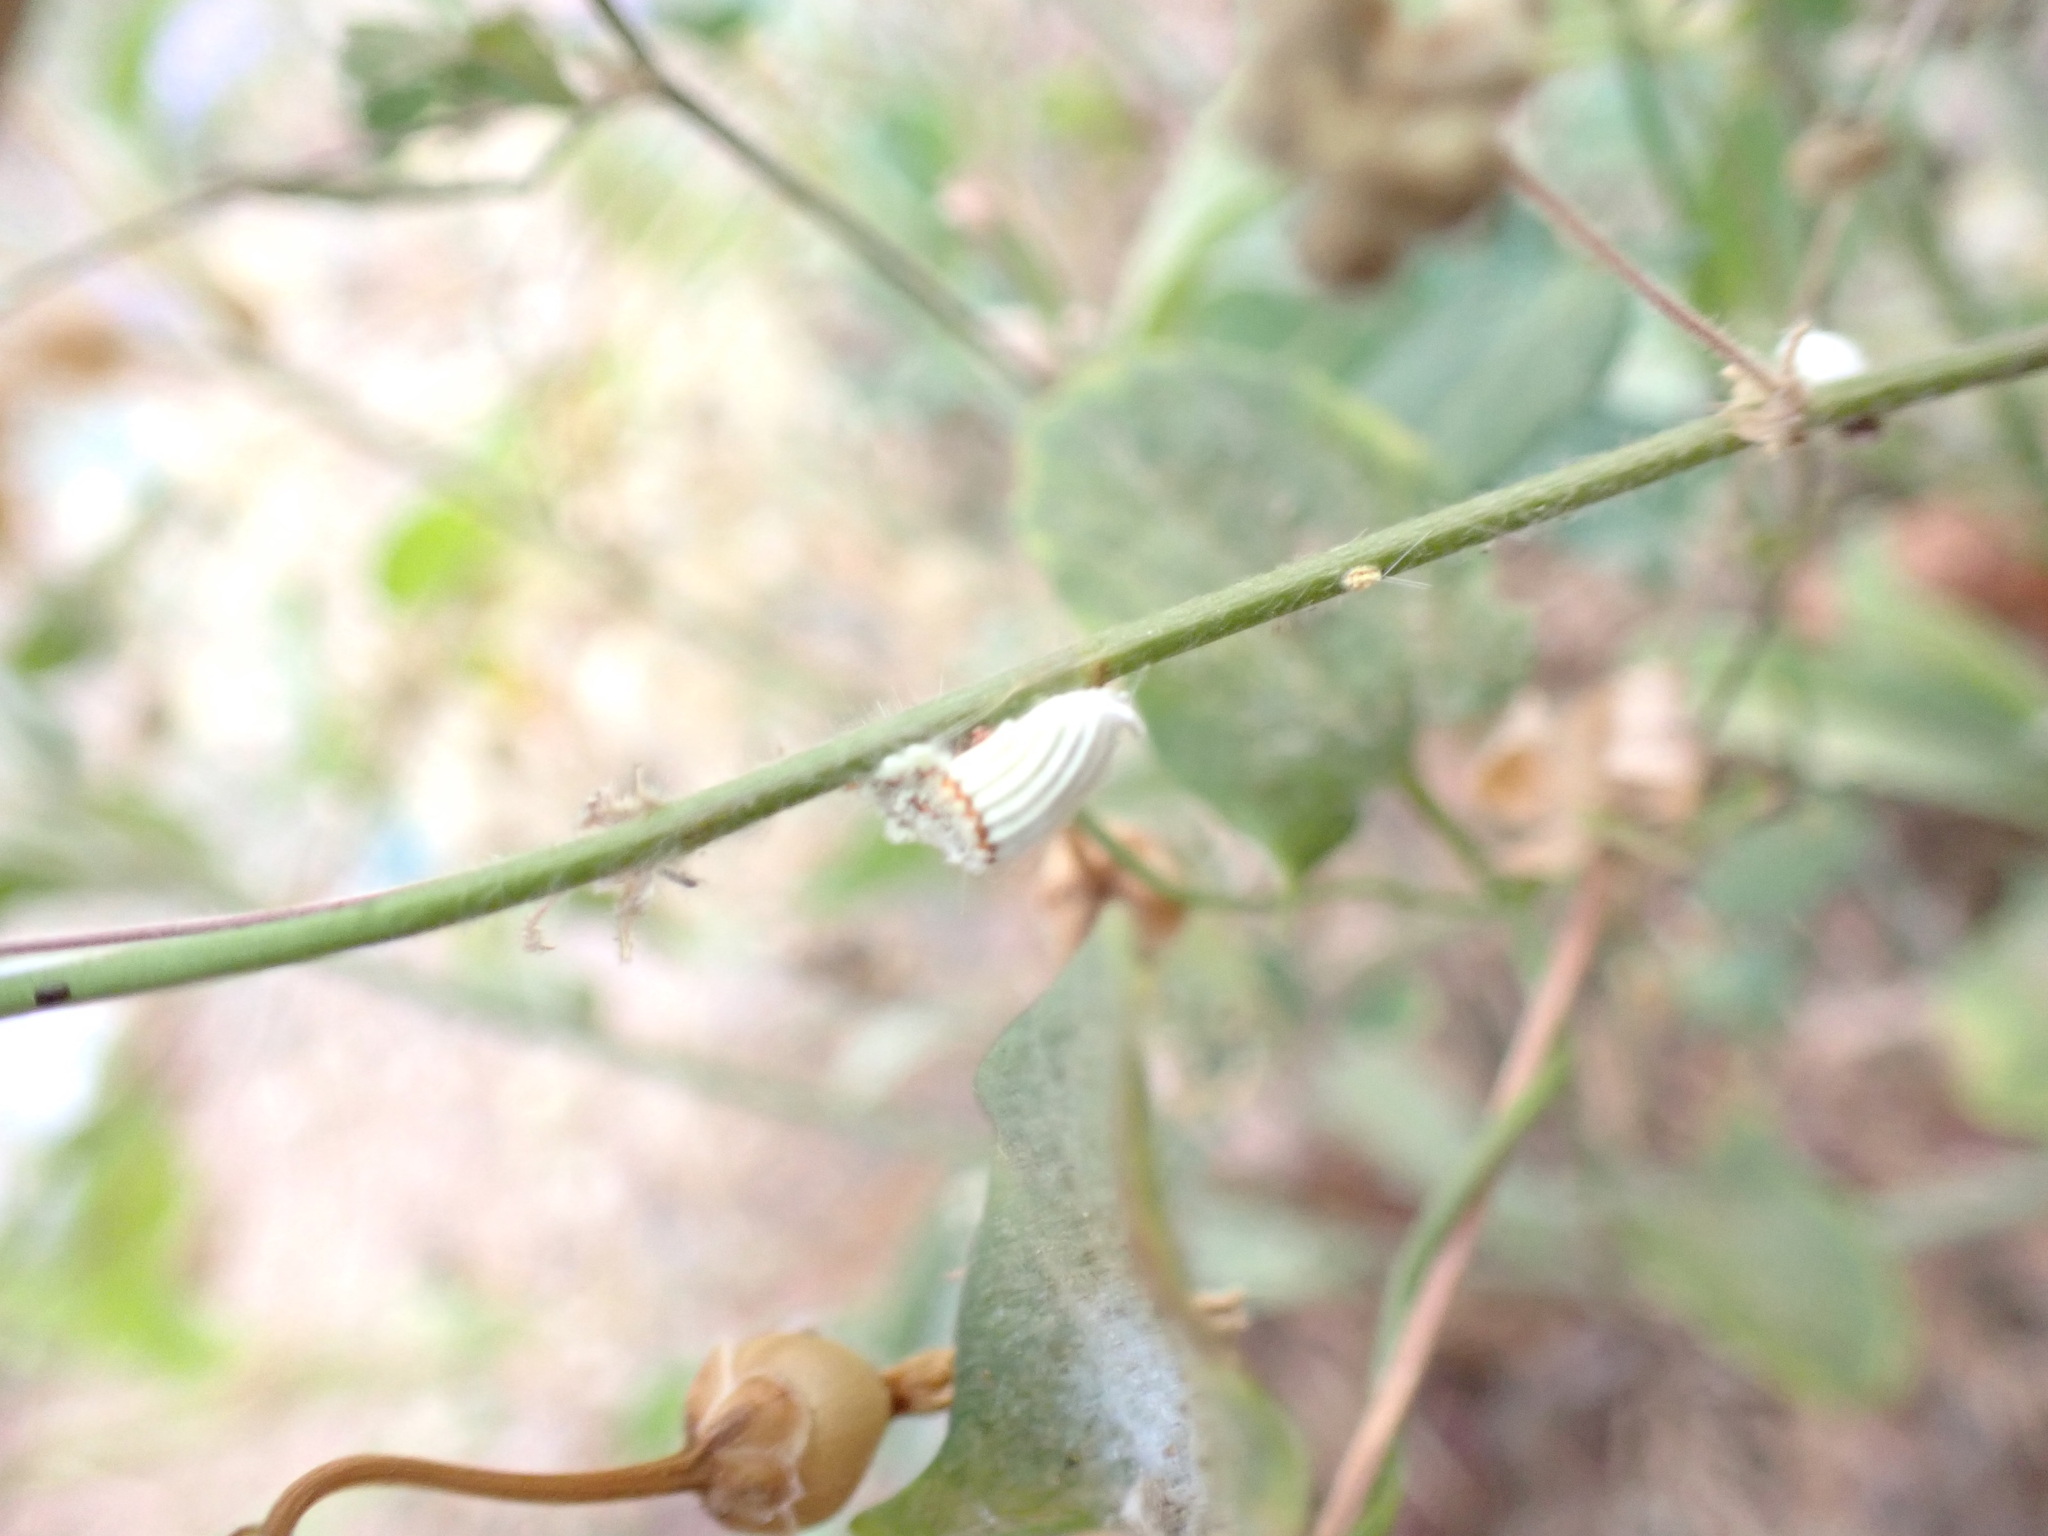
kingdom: Animalia
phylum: Arthropoda
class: Insecta
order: Hemiptera
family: Margarodidae
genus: Icerya
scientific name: Icerya purchasi
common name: Cottony cushion scale
